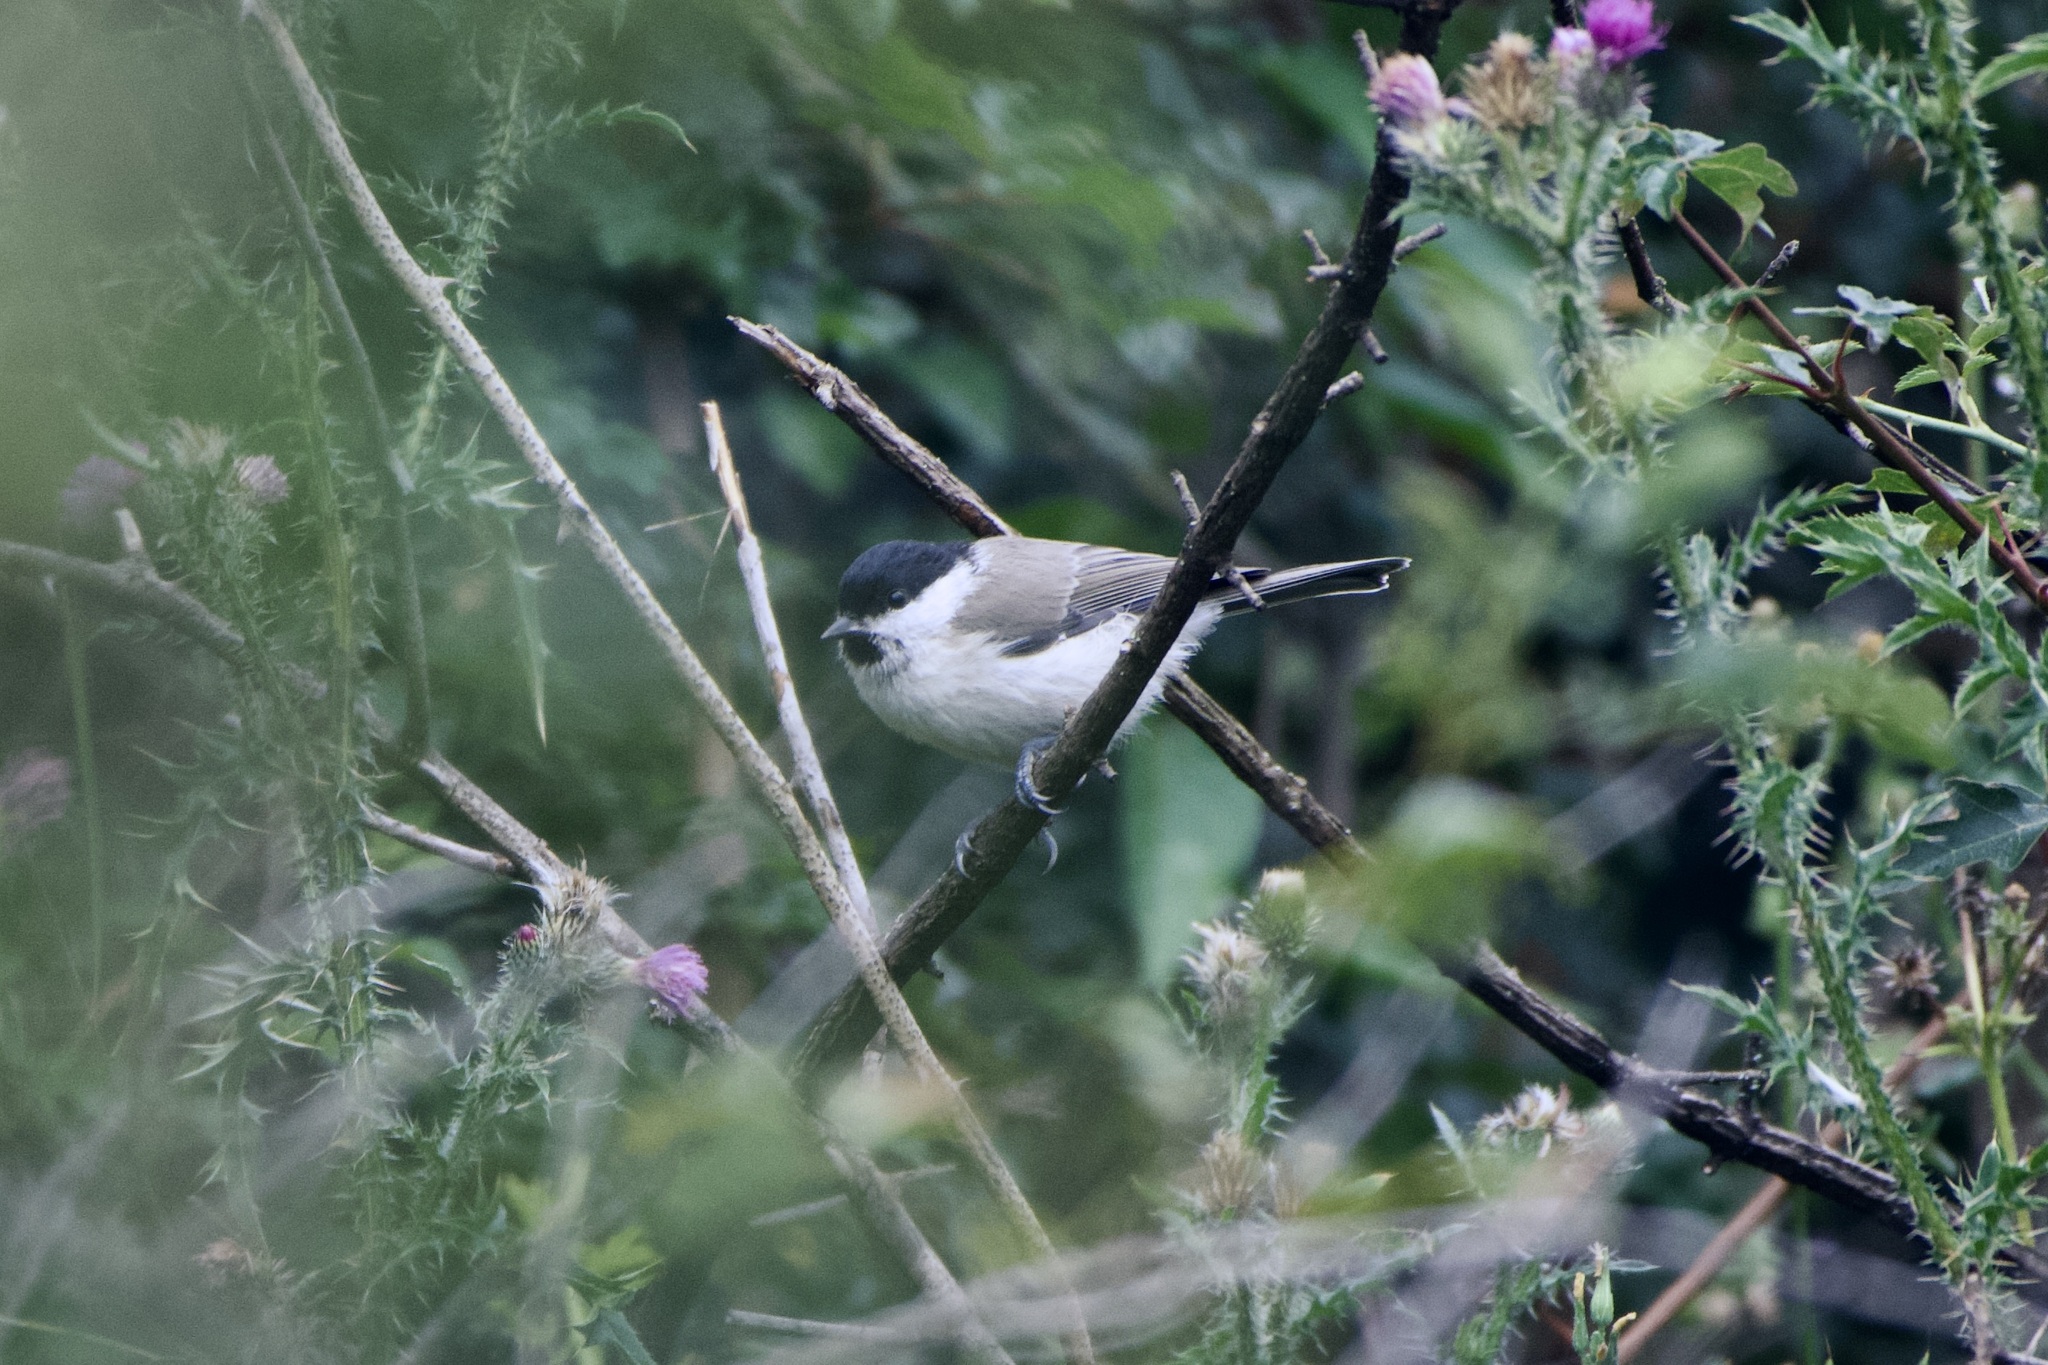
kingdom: Animalia
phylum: Chordata
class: Aves
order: Passeriformes
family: Paridae
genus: Poecile
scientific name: Poecile palustris
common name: Marsh tit
